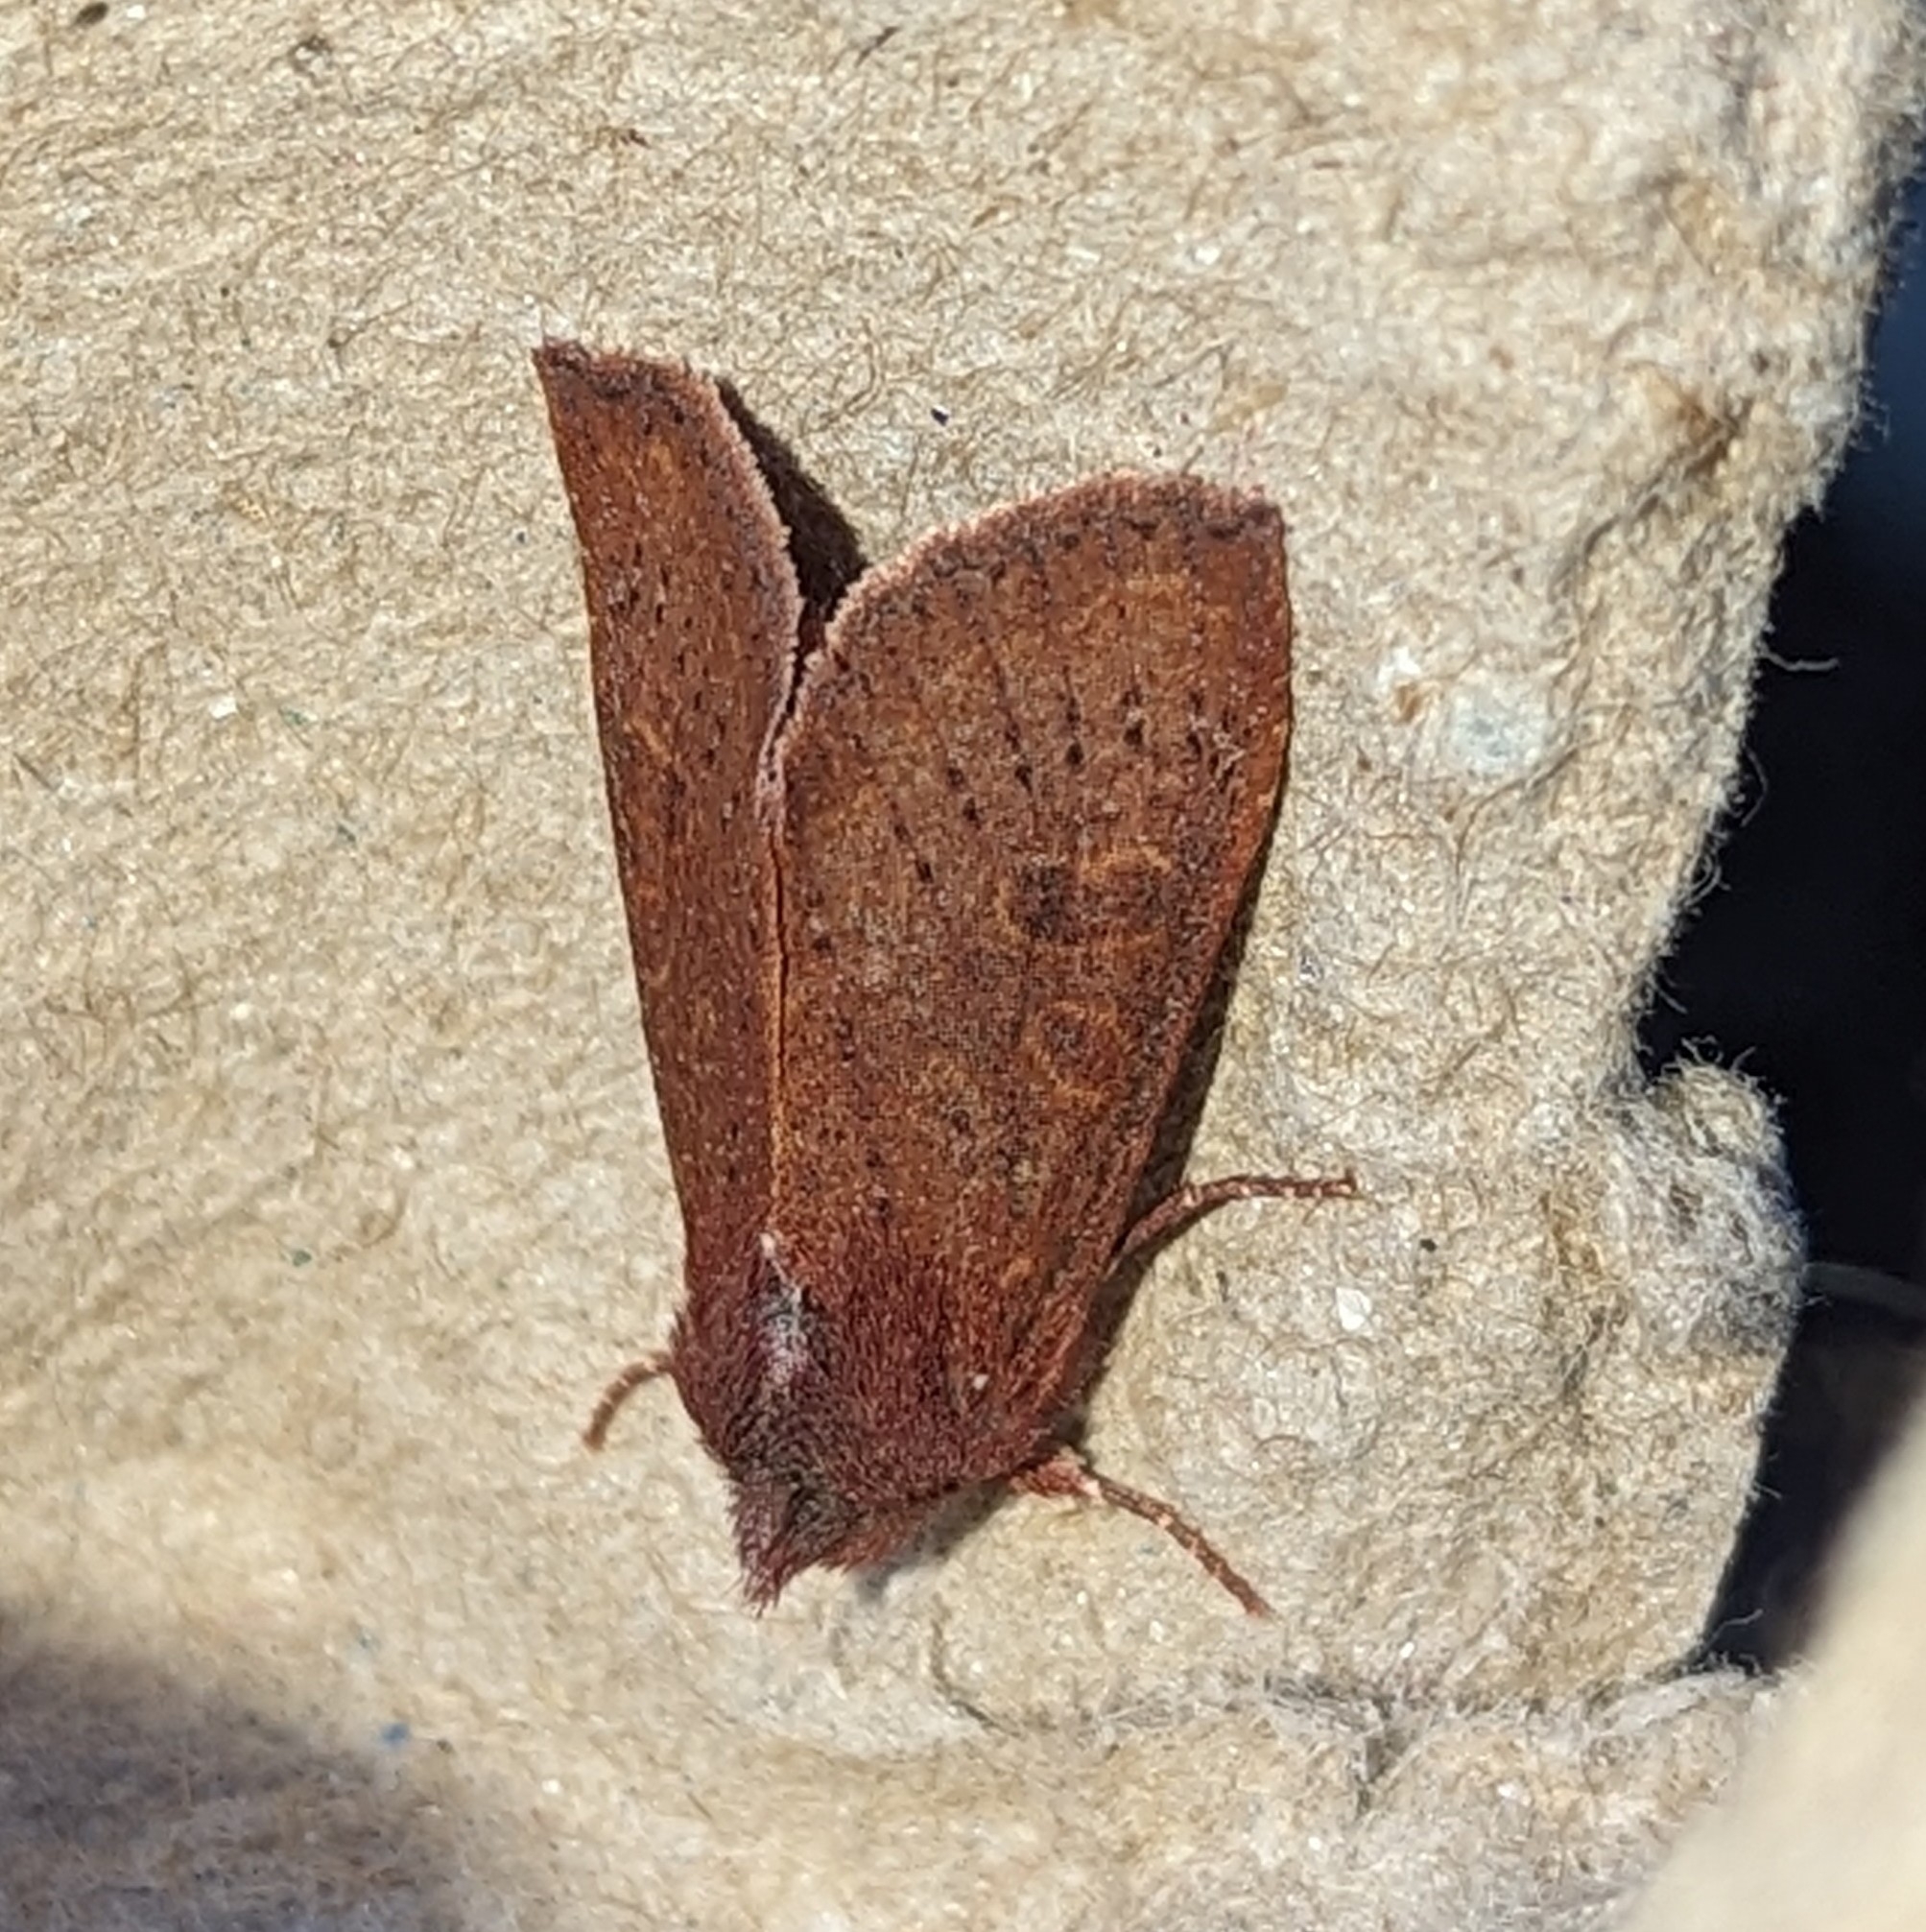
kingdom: Animalia
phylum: Arthropoda
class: Insecta
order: Lepidoptera
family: Noctuidae
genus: Orthosia
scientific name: Orthosia transparens
